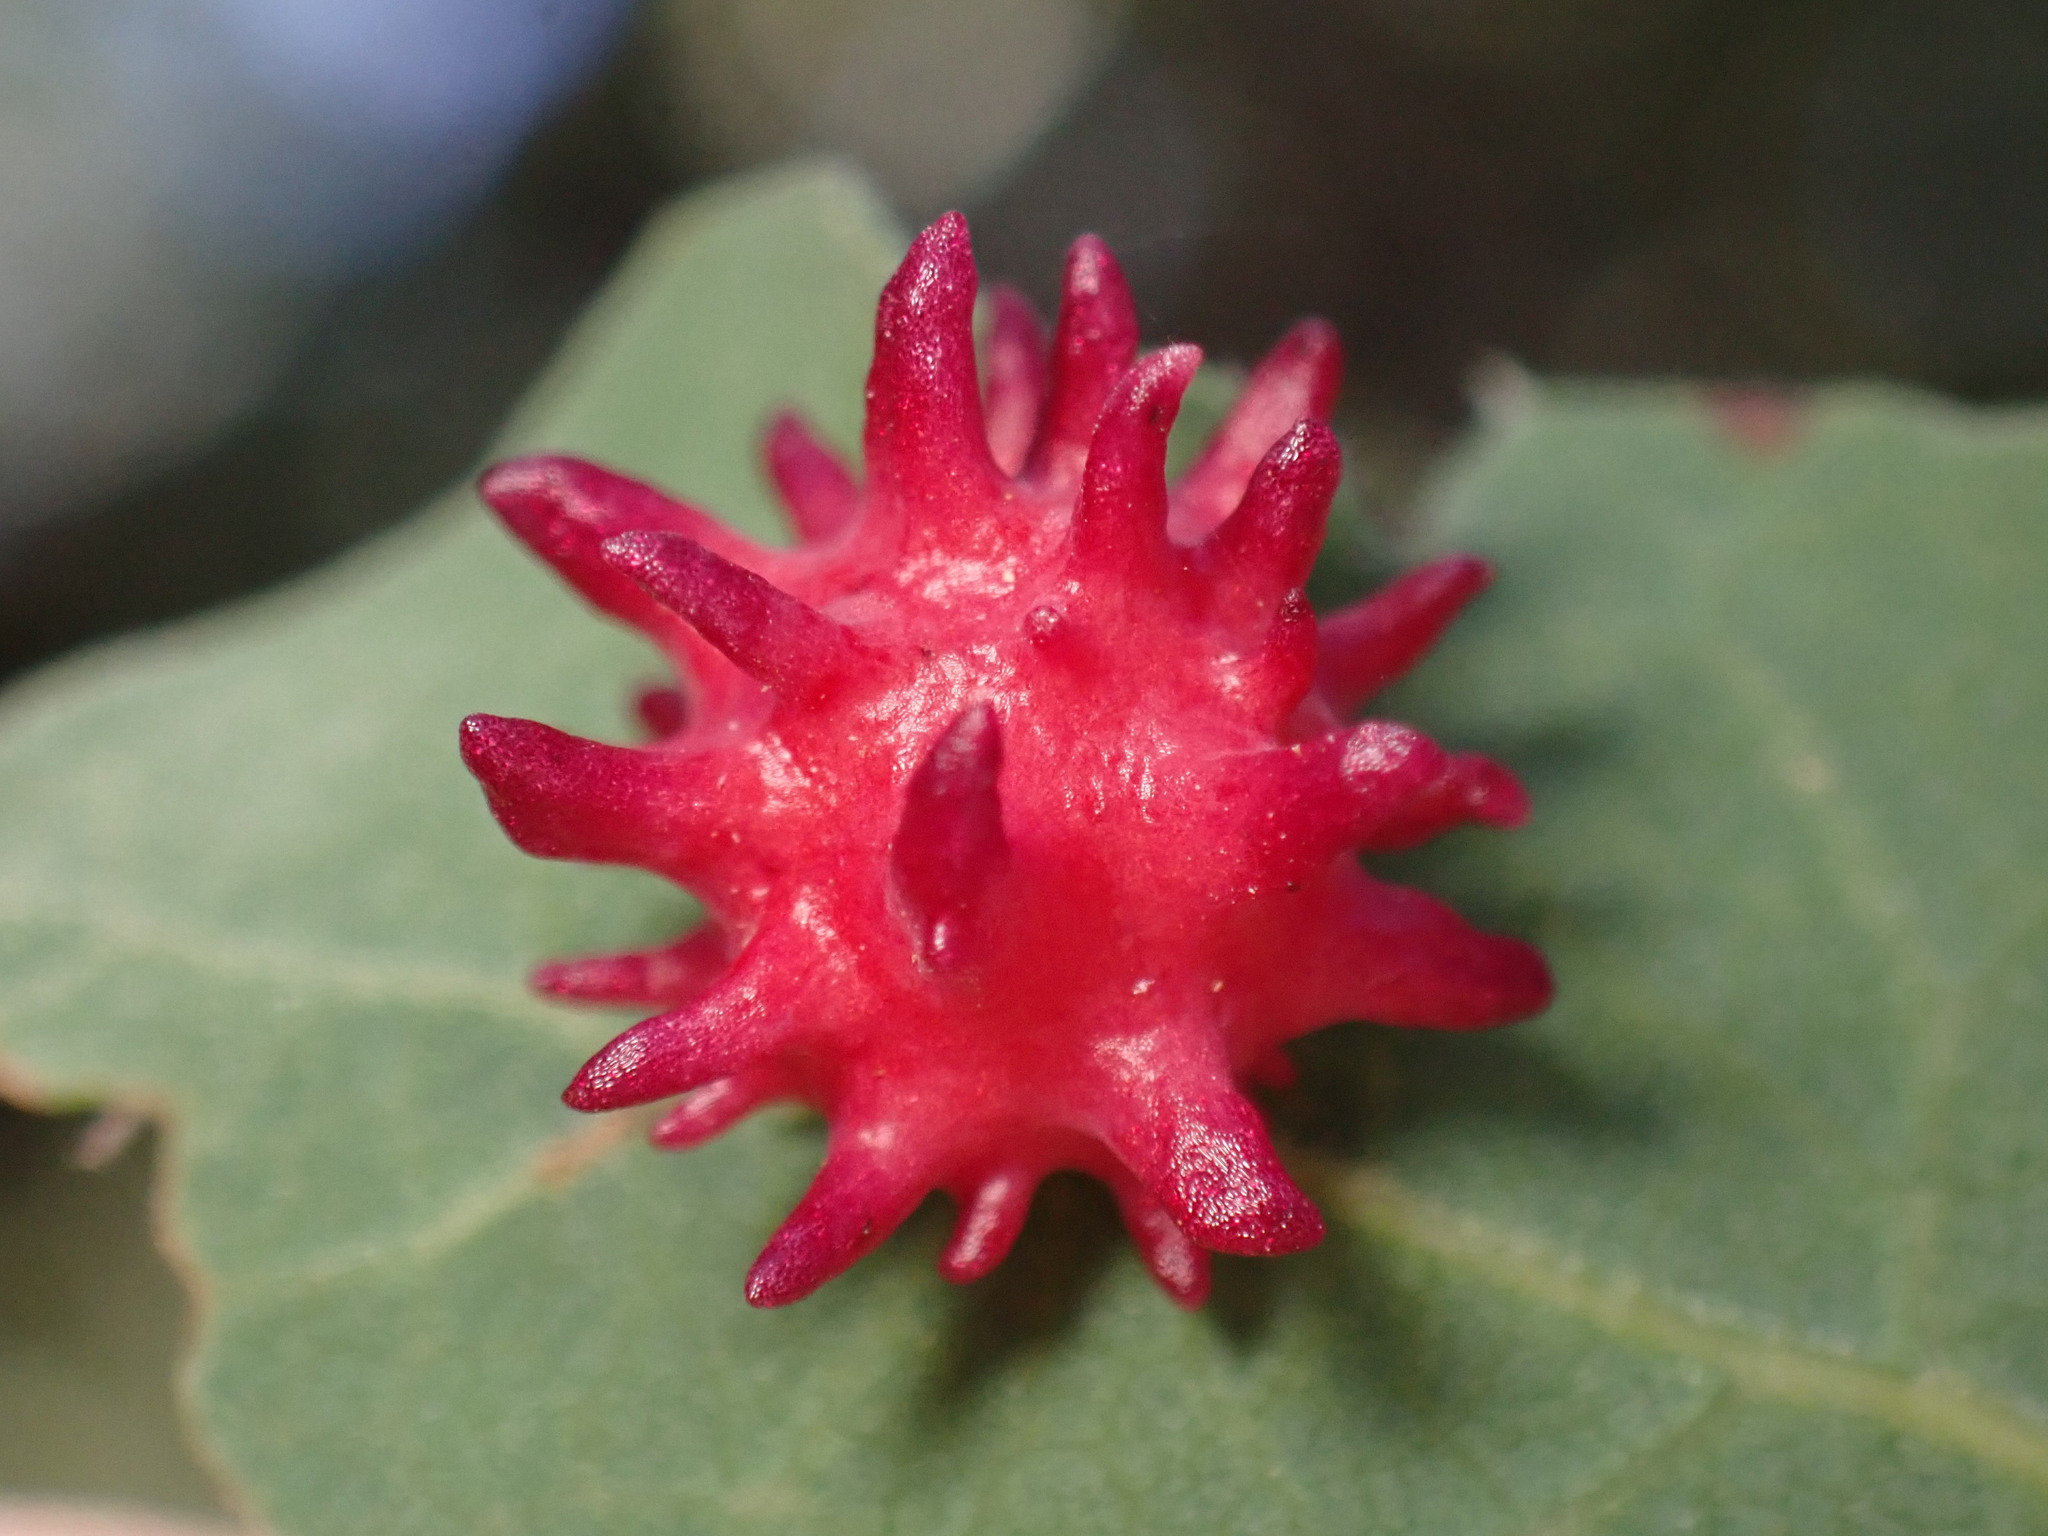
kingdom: Animalia
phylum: Arthropoda
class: Insecta
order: Hymenoptera
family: Cynipidae
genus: Cynips
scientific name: Cynips
